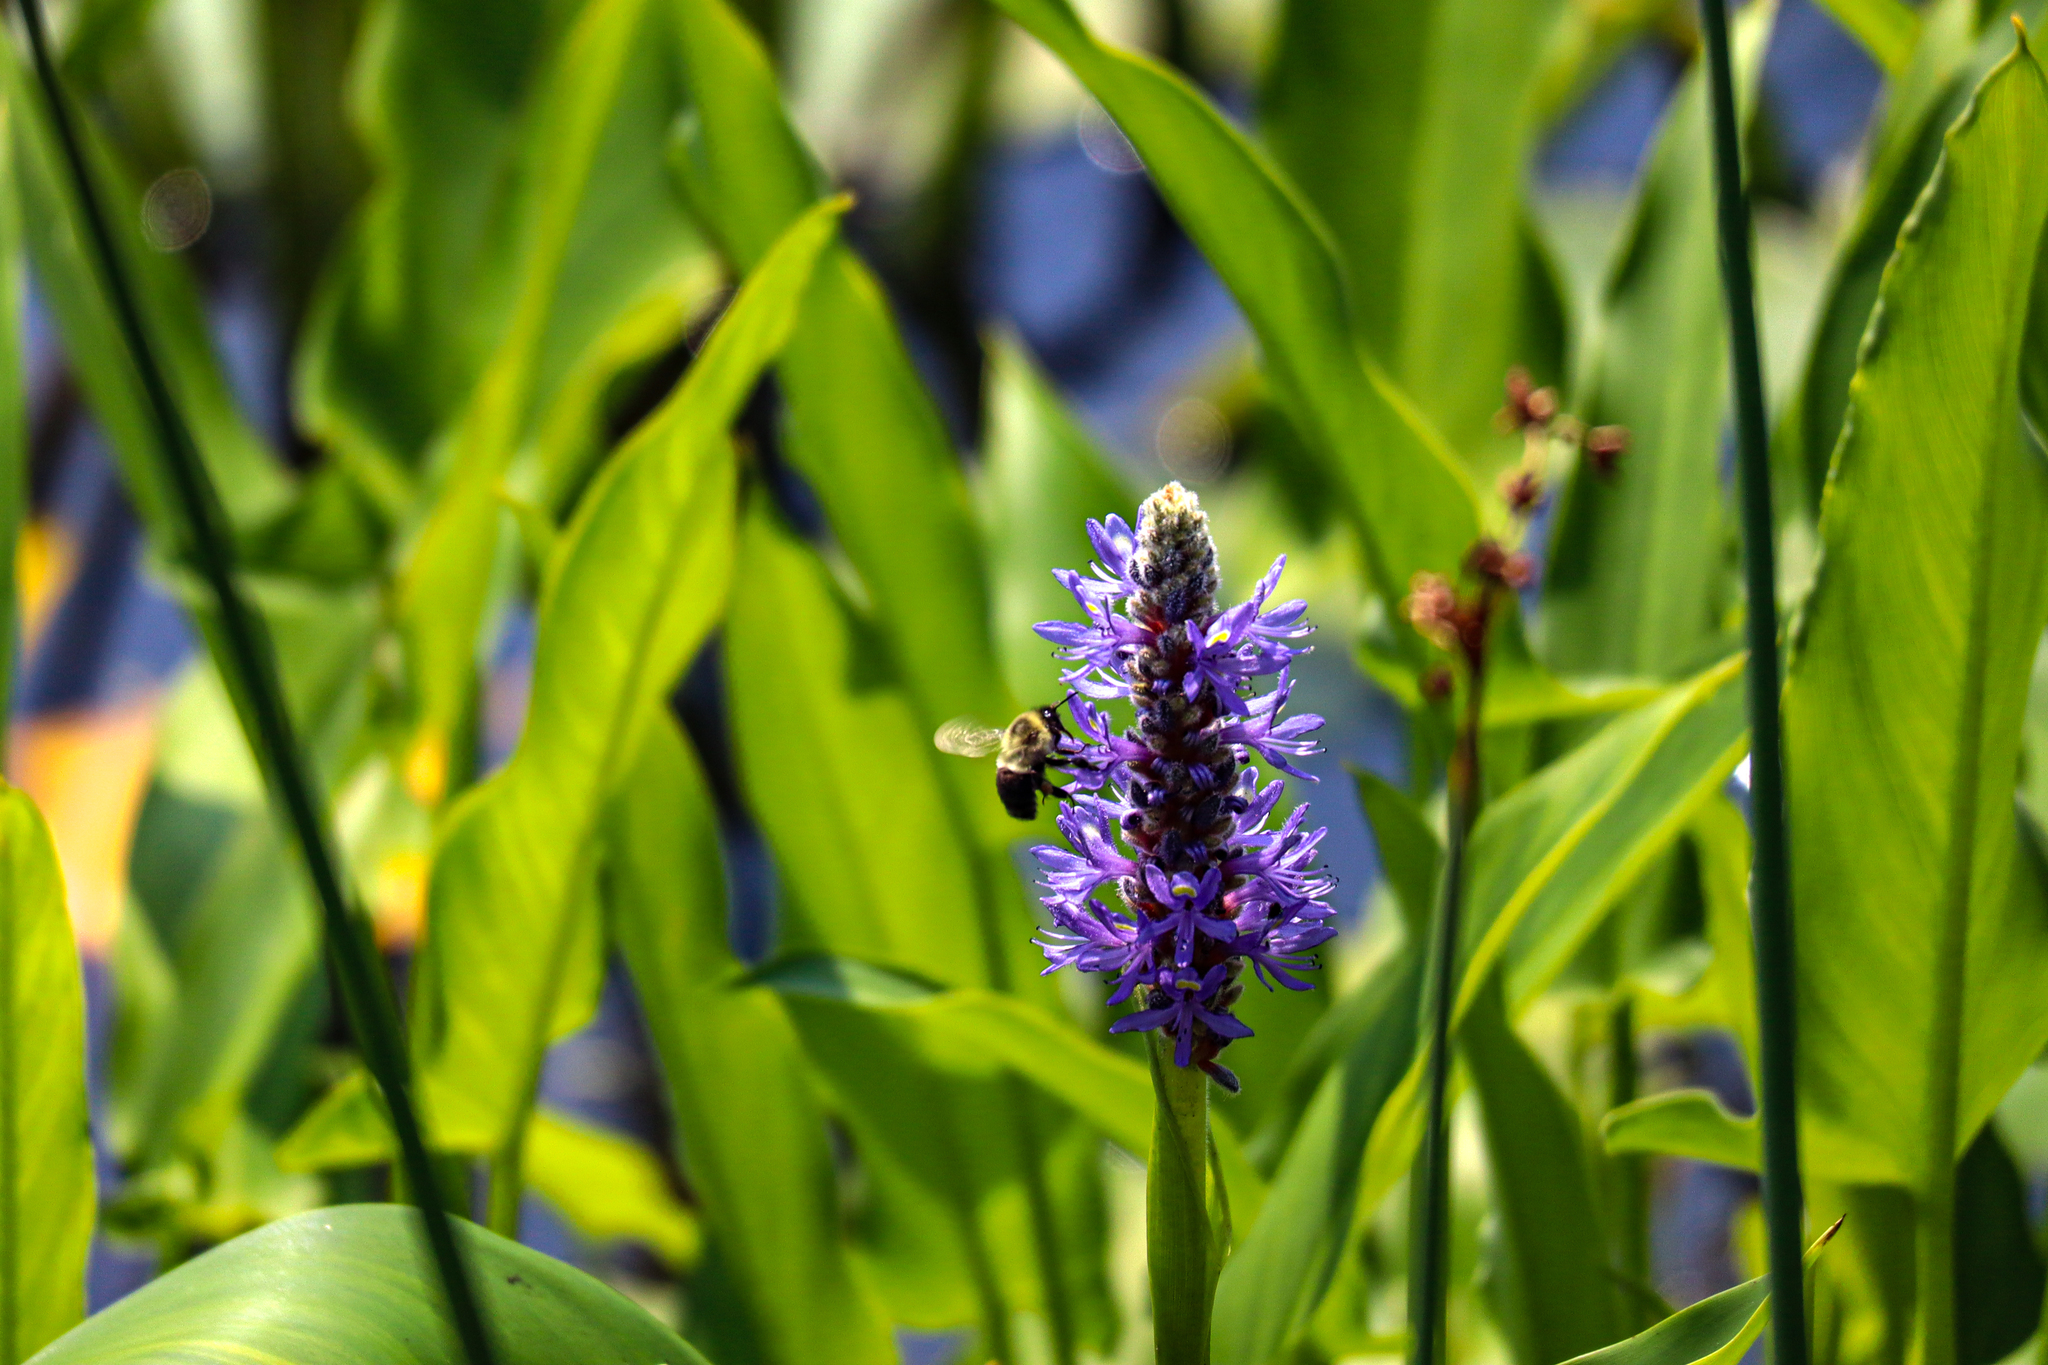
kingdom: Animalia
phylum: Arthropoda
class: Insecta
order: Hymenoptera
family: Apidae
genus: Bombus
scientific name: Bombus impatiens
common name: Common eastern bumble bee
